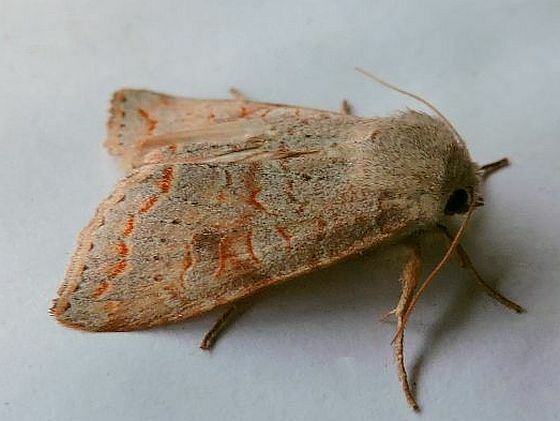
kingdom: Animalia
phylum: Arthropoda
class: Insecta
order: Lepidoptera
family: Noctuidae
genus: Orthosia
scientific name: Orthosia revicta
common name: Rusty whitesided caterpillar
